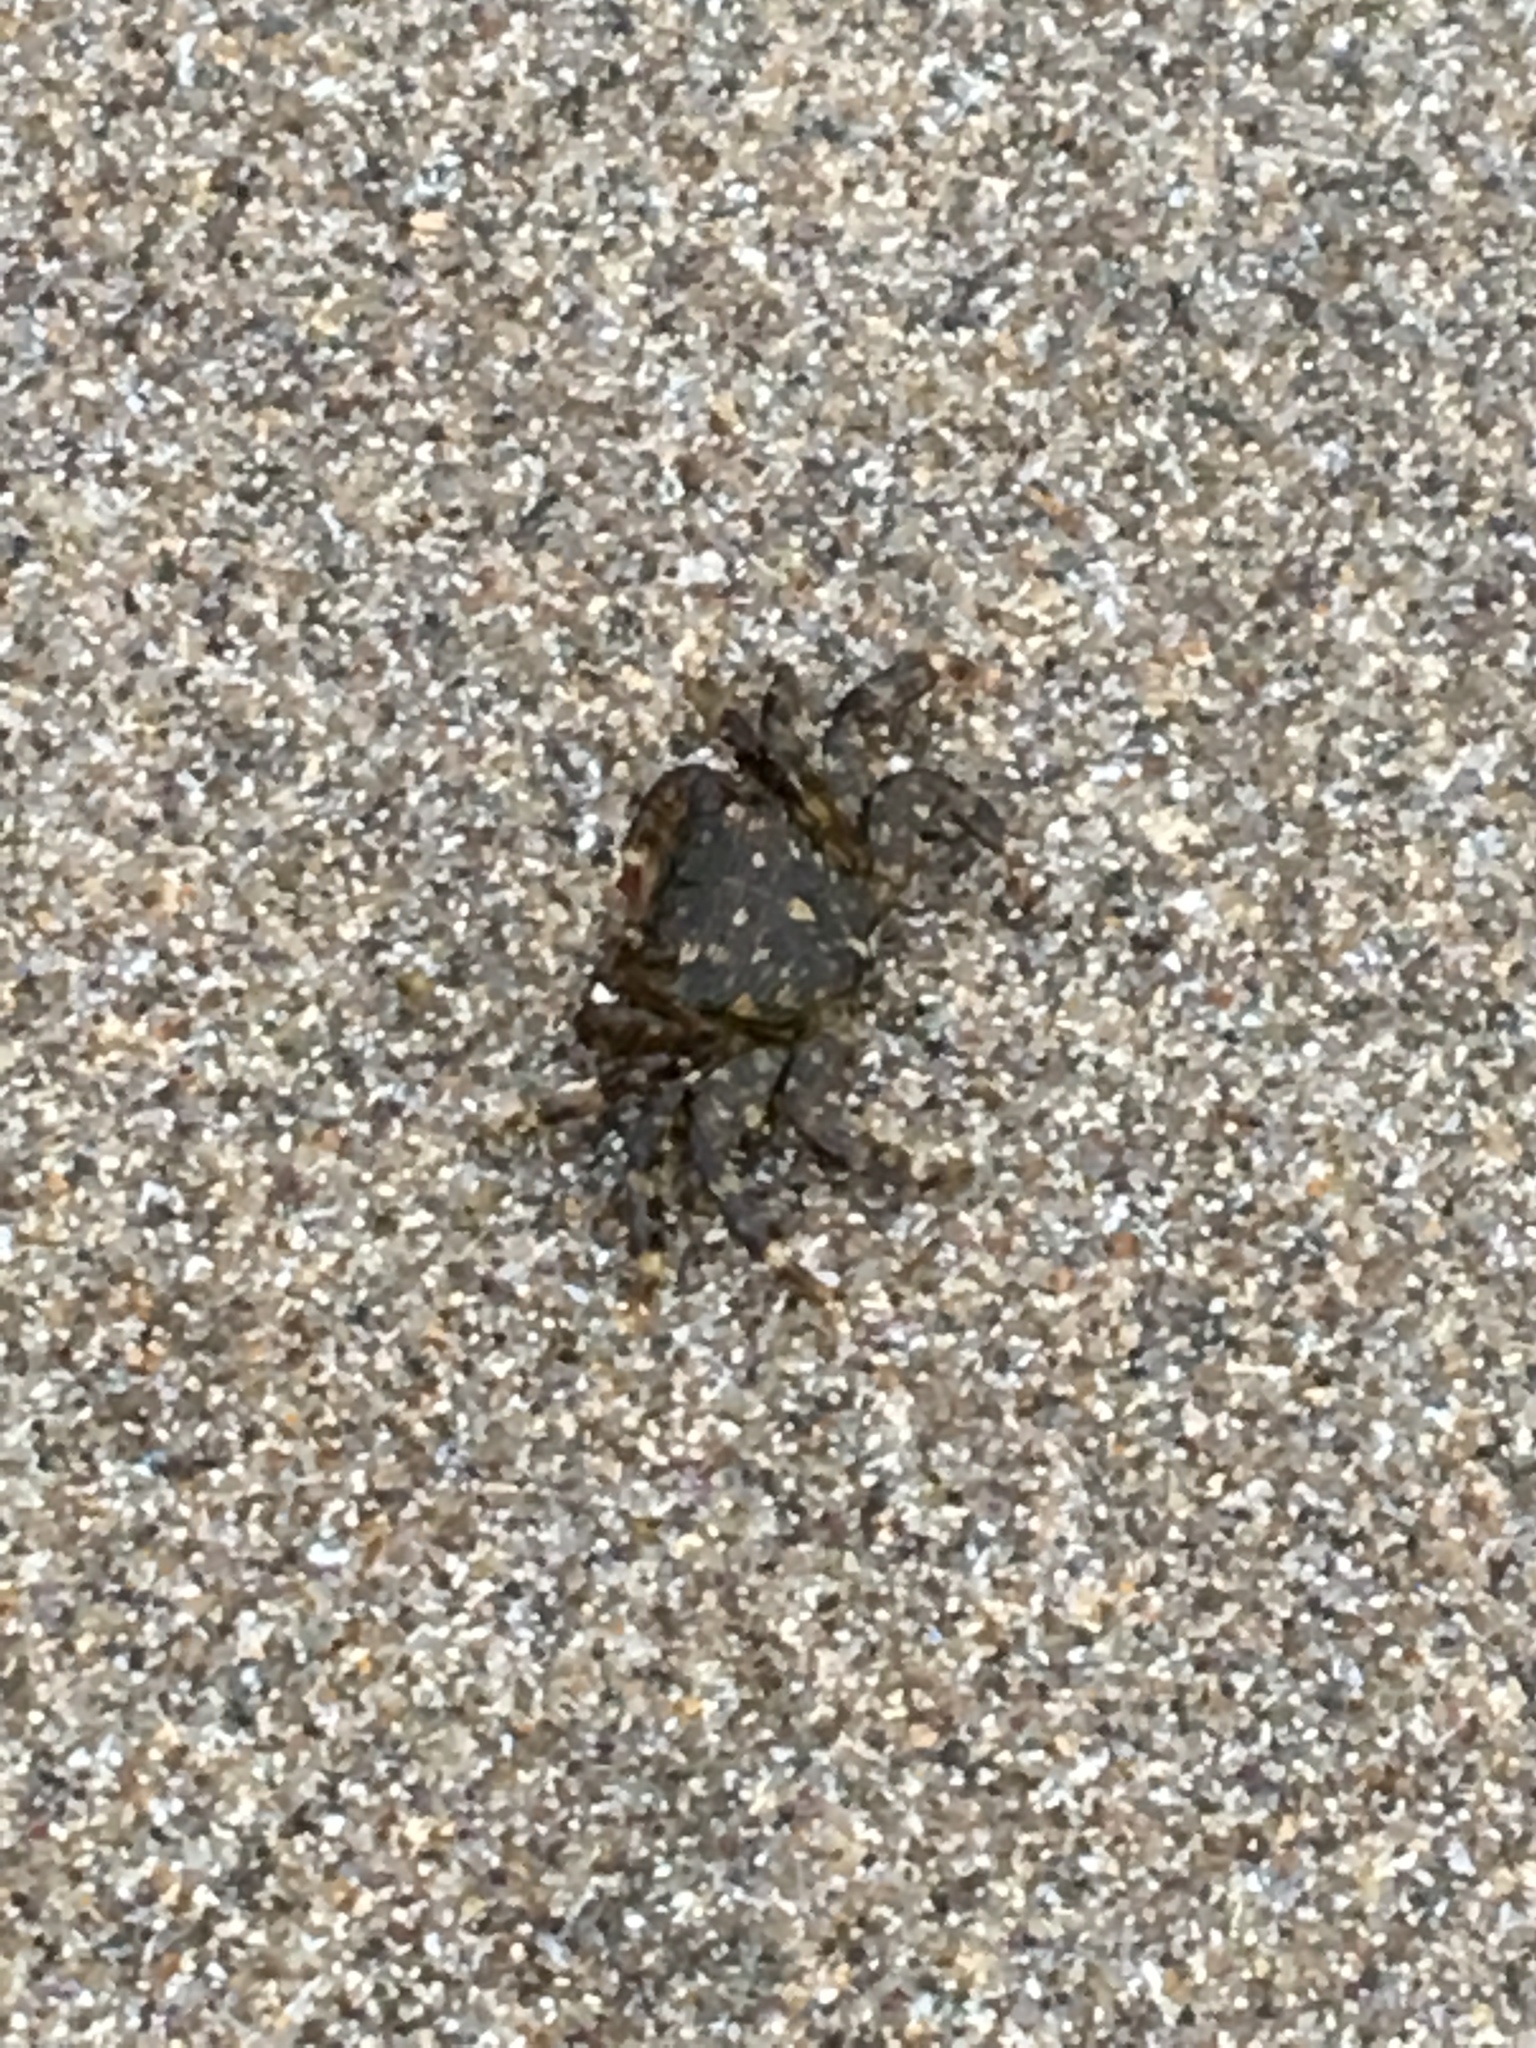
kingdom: Animalia
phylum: Arthropoda
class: Malacostraca
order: Decapoda
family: Grapsidae
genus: Pachygrapsus
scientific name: Pachygrapsus crassipes
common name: Striped shore crab
